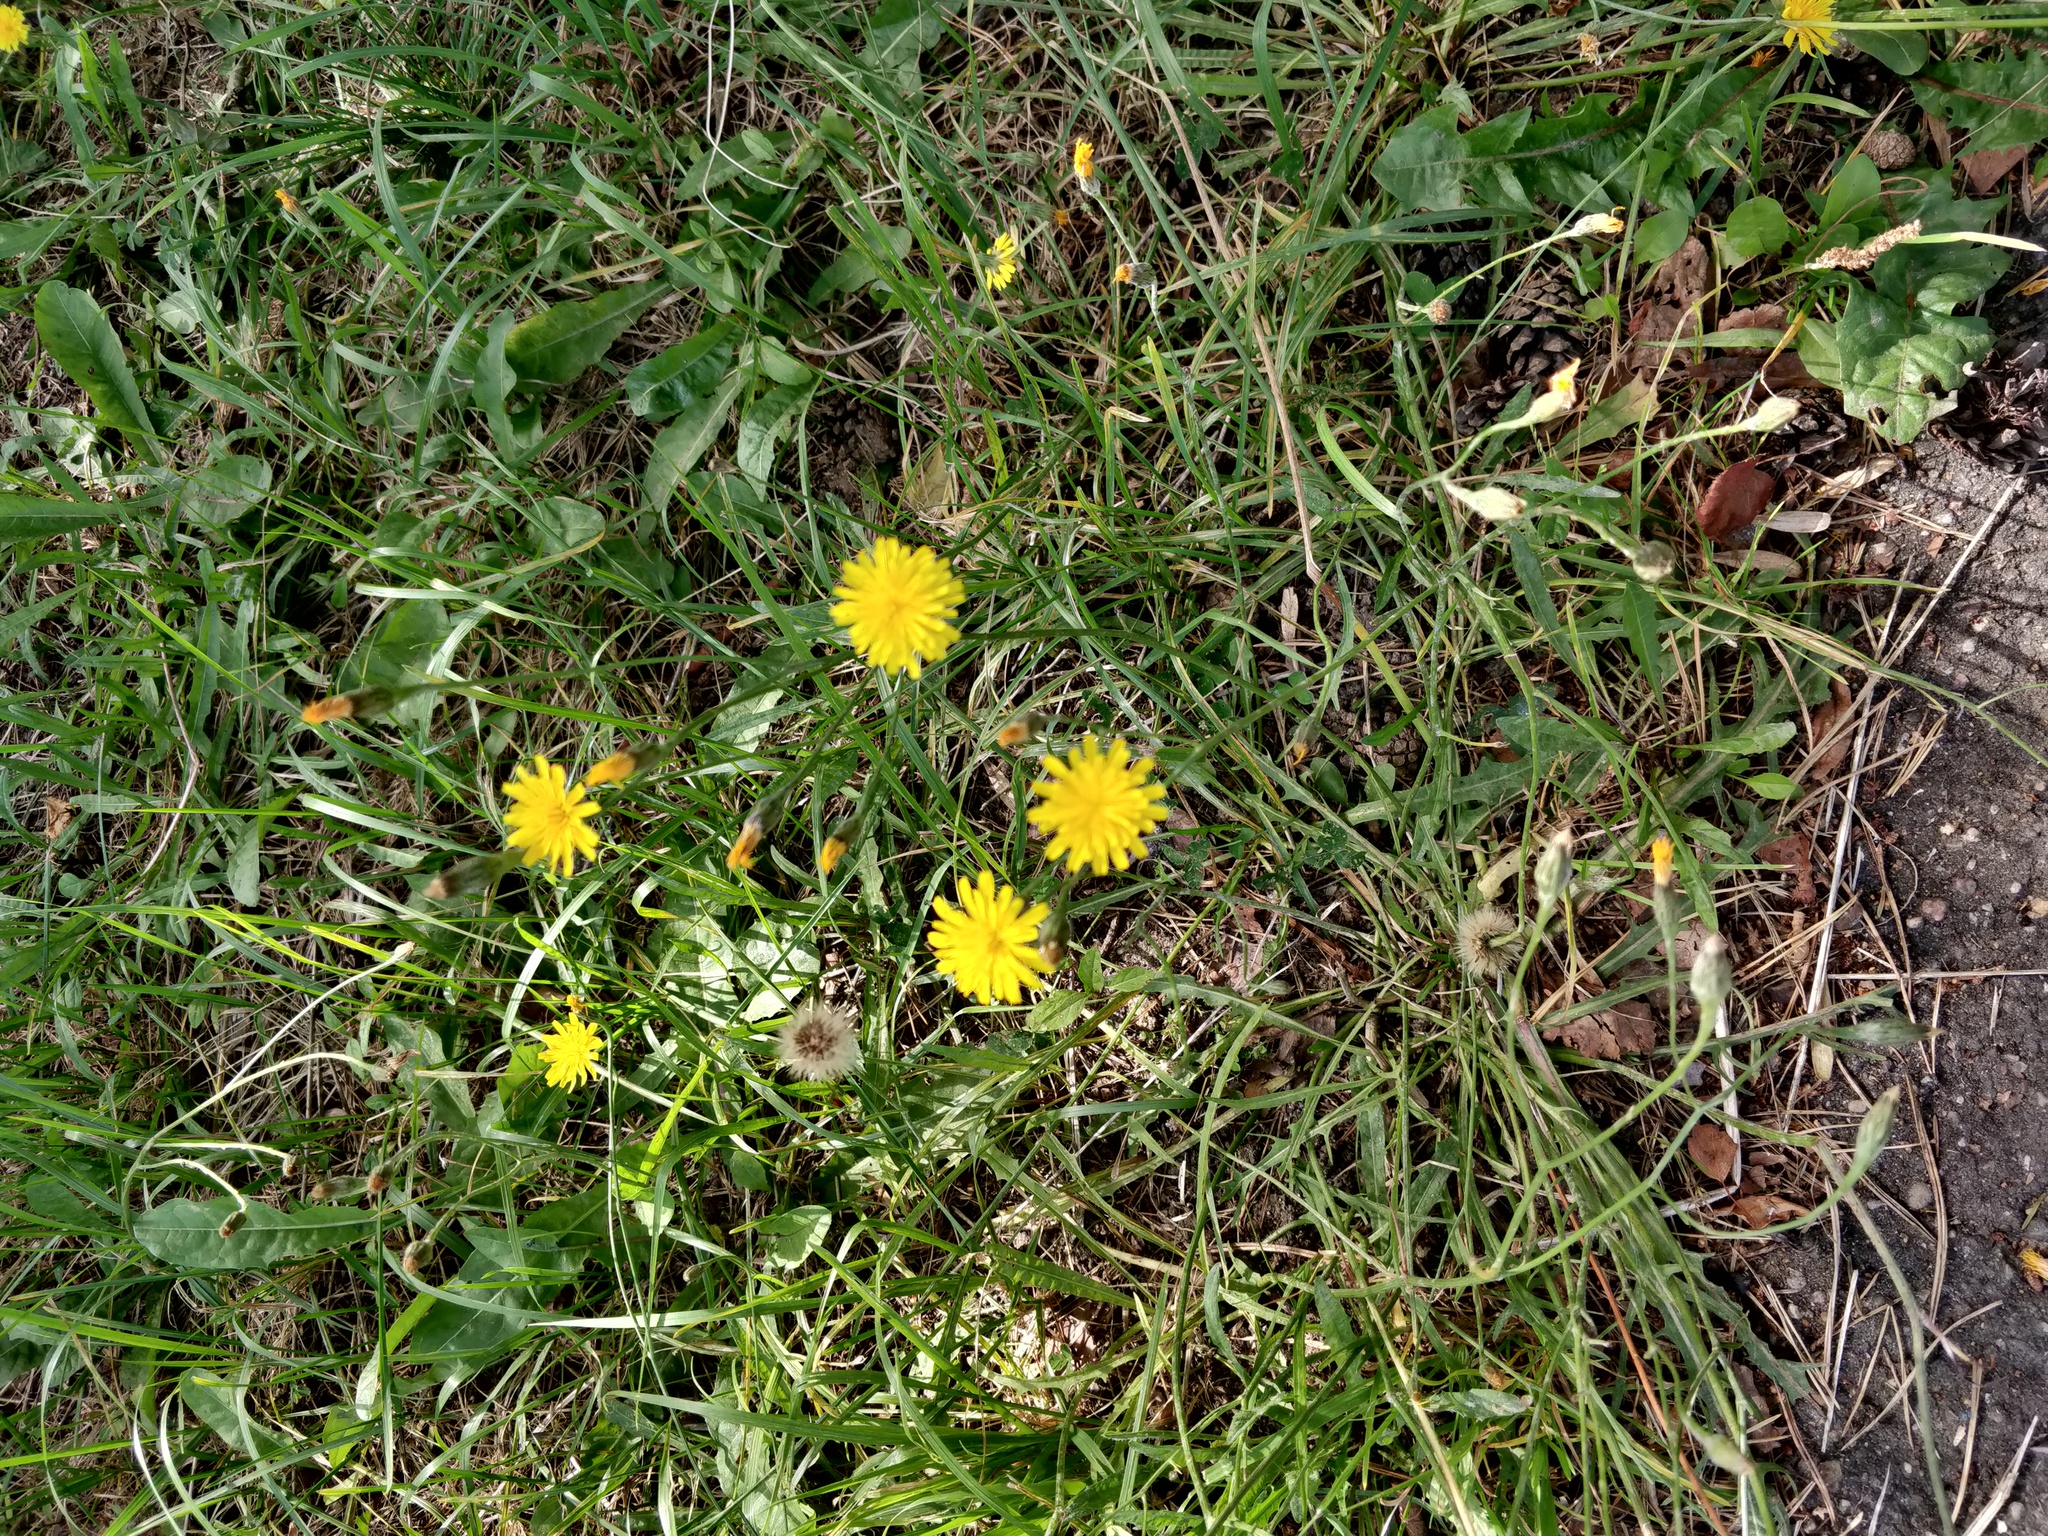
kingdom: Plantae
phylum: Tracheophyta
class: Magnoliopsida
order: Asterales
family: Asteraceae
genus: Scorzoneroides
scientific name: Scorzoneroides autumnalis
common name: Autumn hawkbit
